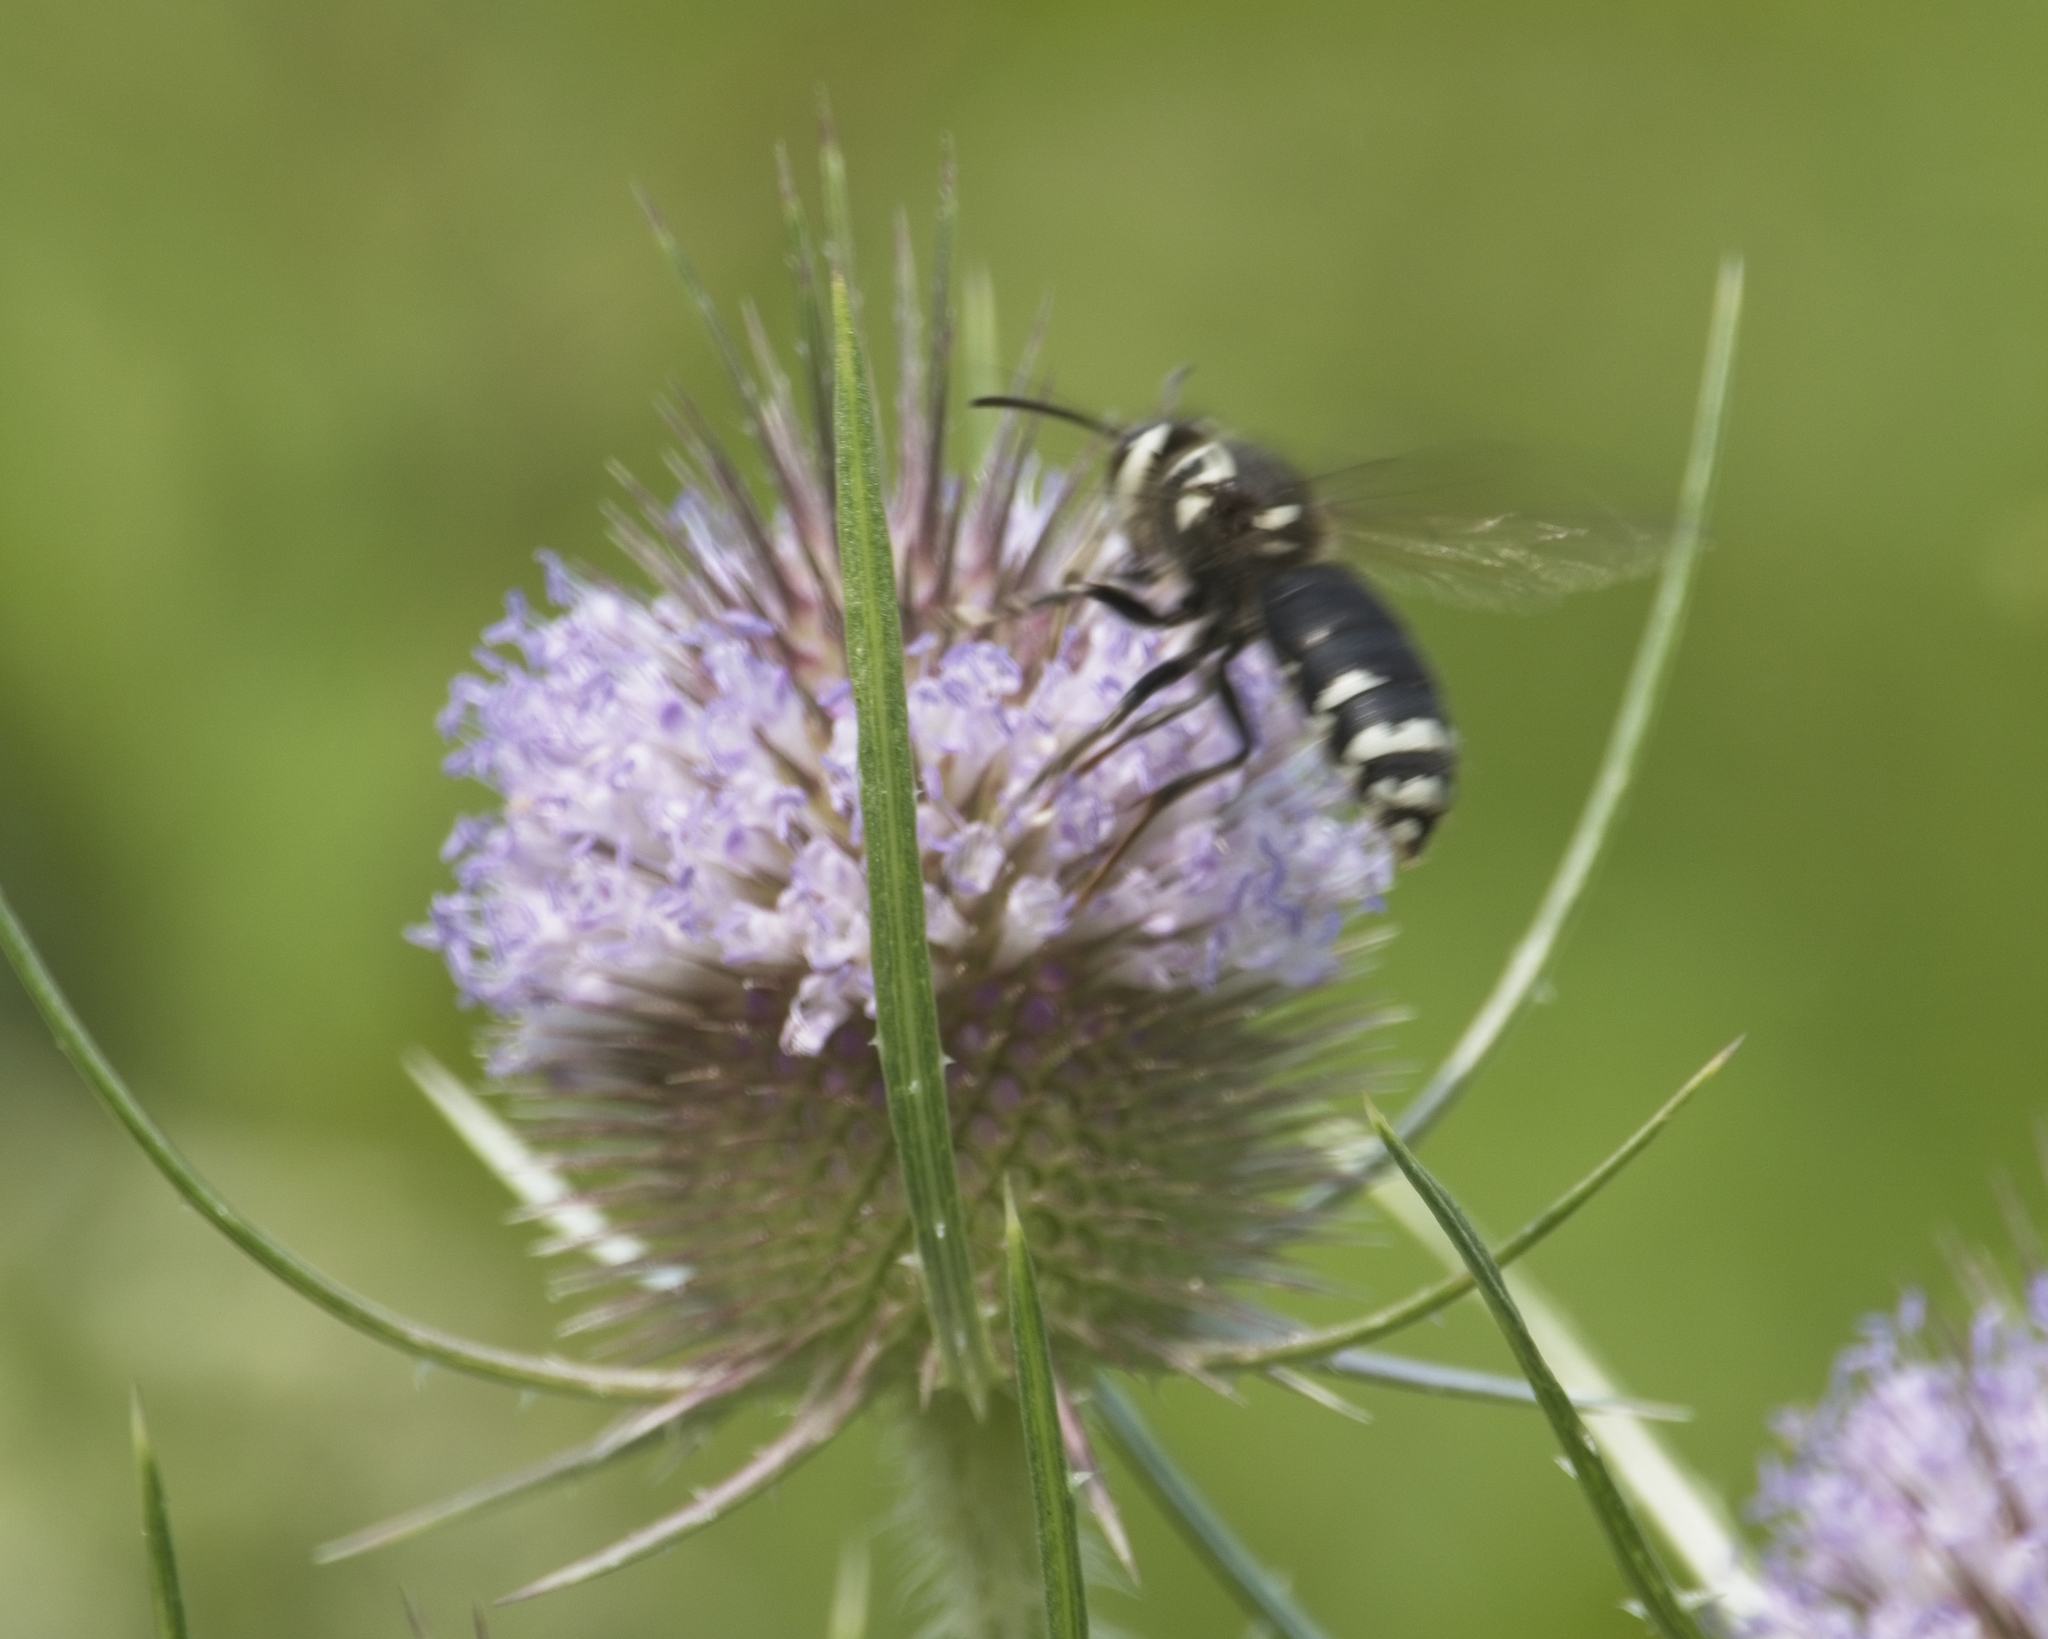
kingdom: Animalia
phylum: Arthropoda
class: Insecta
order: Hymenoptera
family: Vespidae
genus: Dolichovespula
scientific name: Dolichovespula maculata
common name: Bald-faced hornet
